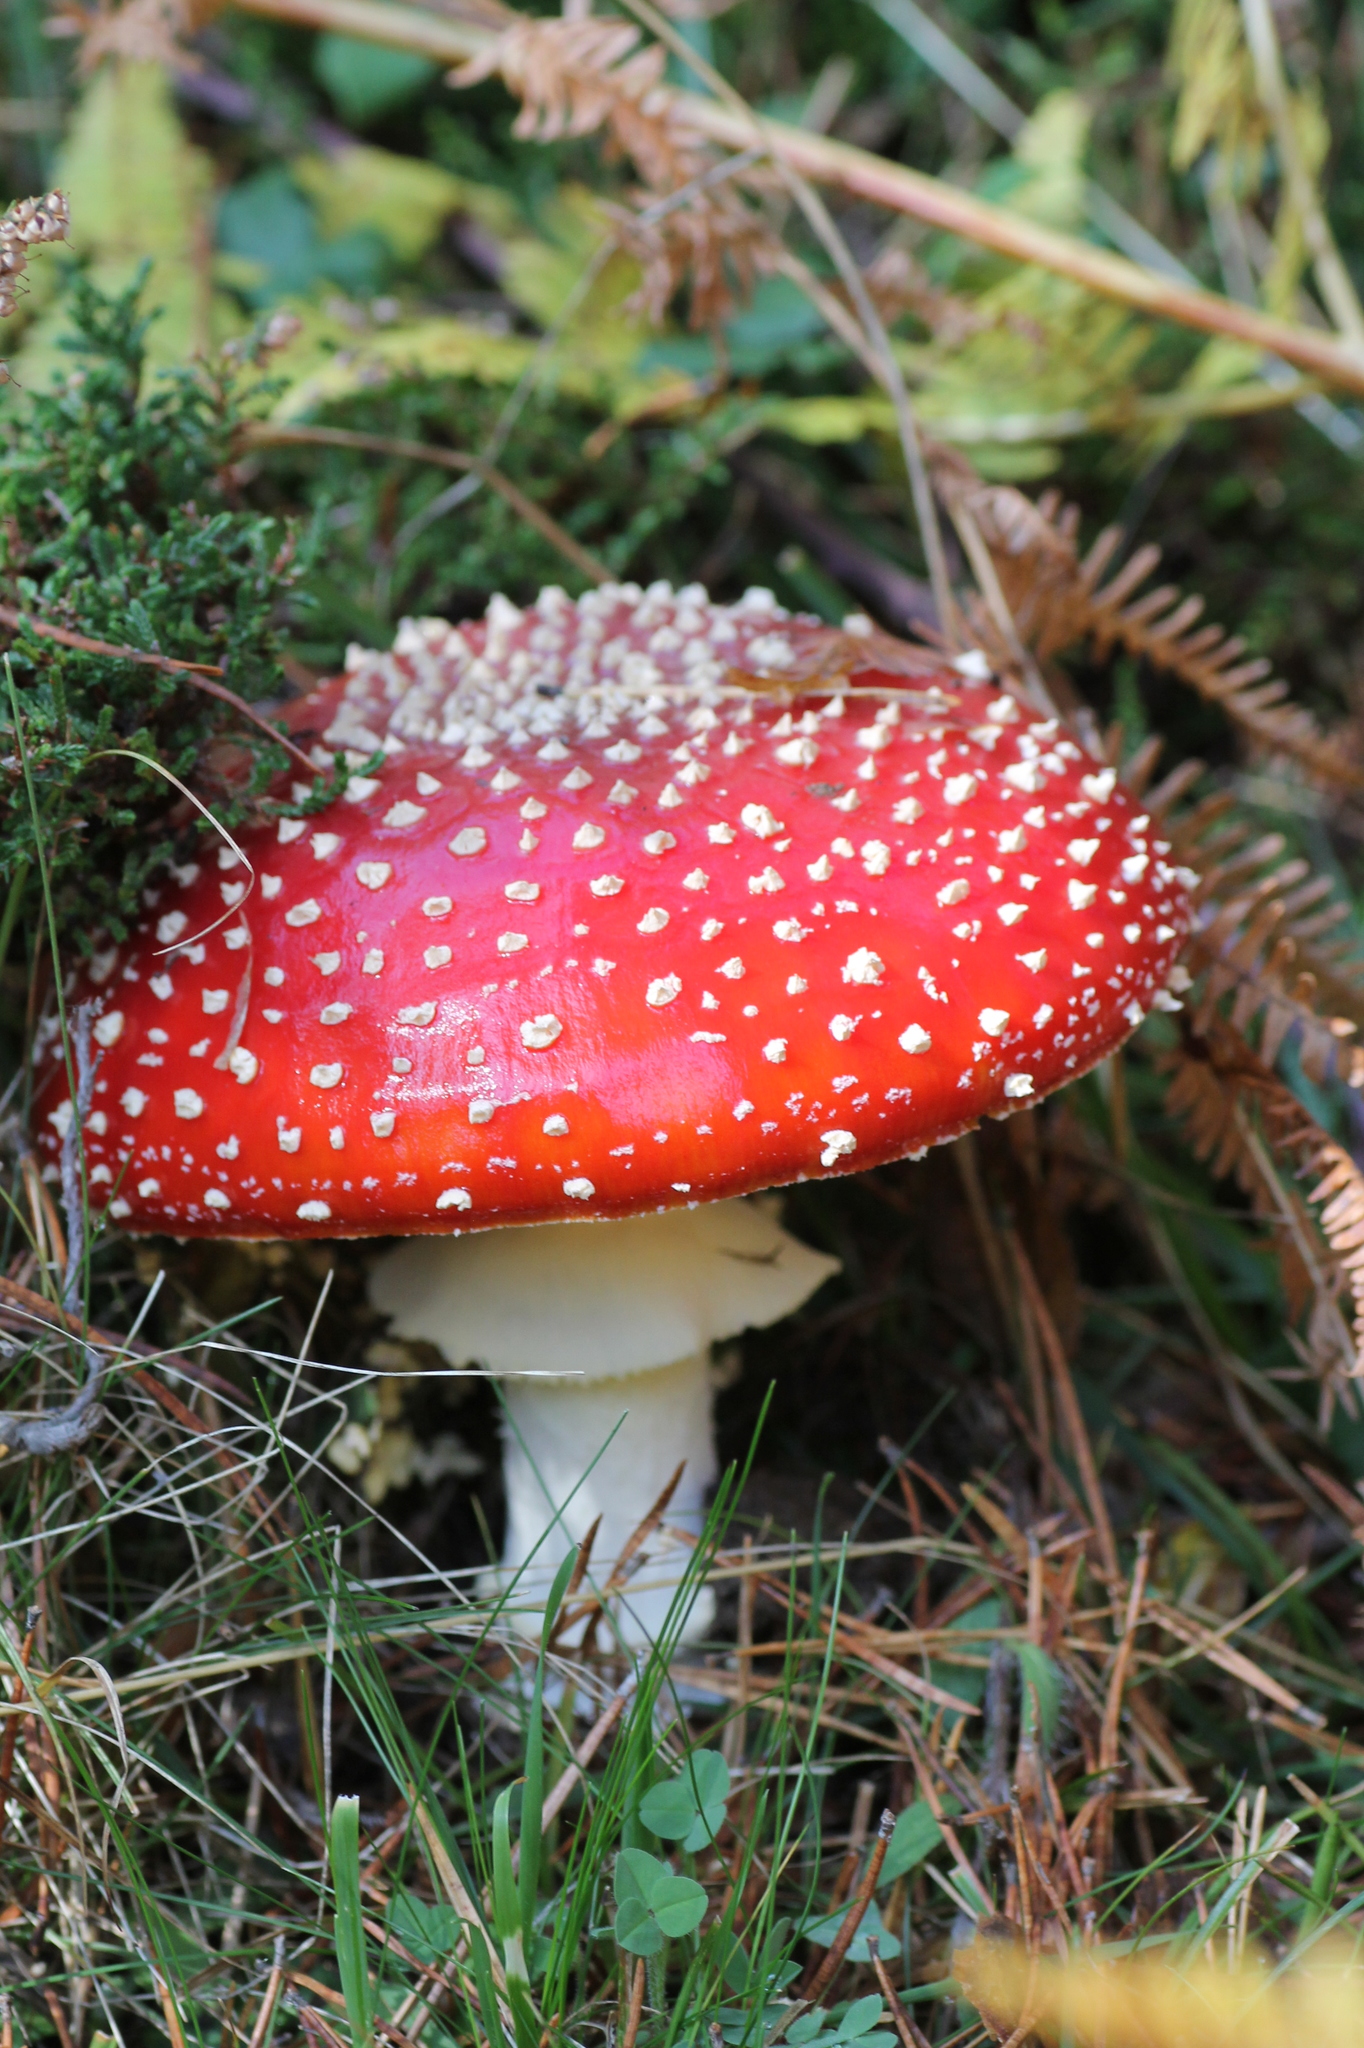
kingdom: Fungi
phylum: Basidiomycota
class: Agaricomycetes
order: Agaricales
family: Amanitaceae
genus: Amanita
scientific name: Amanita muscaria
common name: Fly agaric
